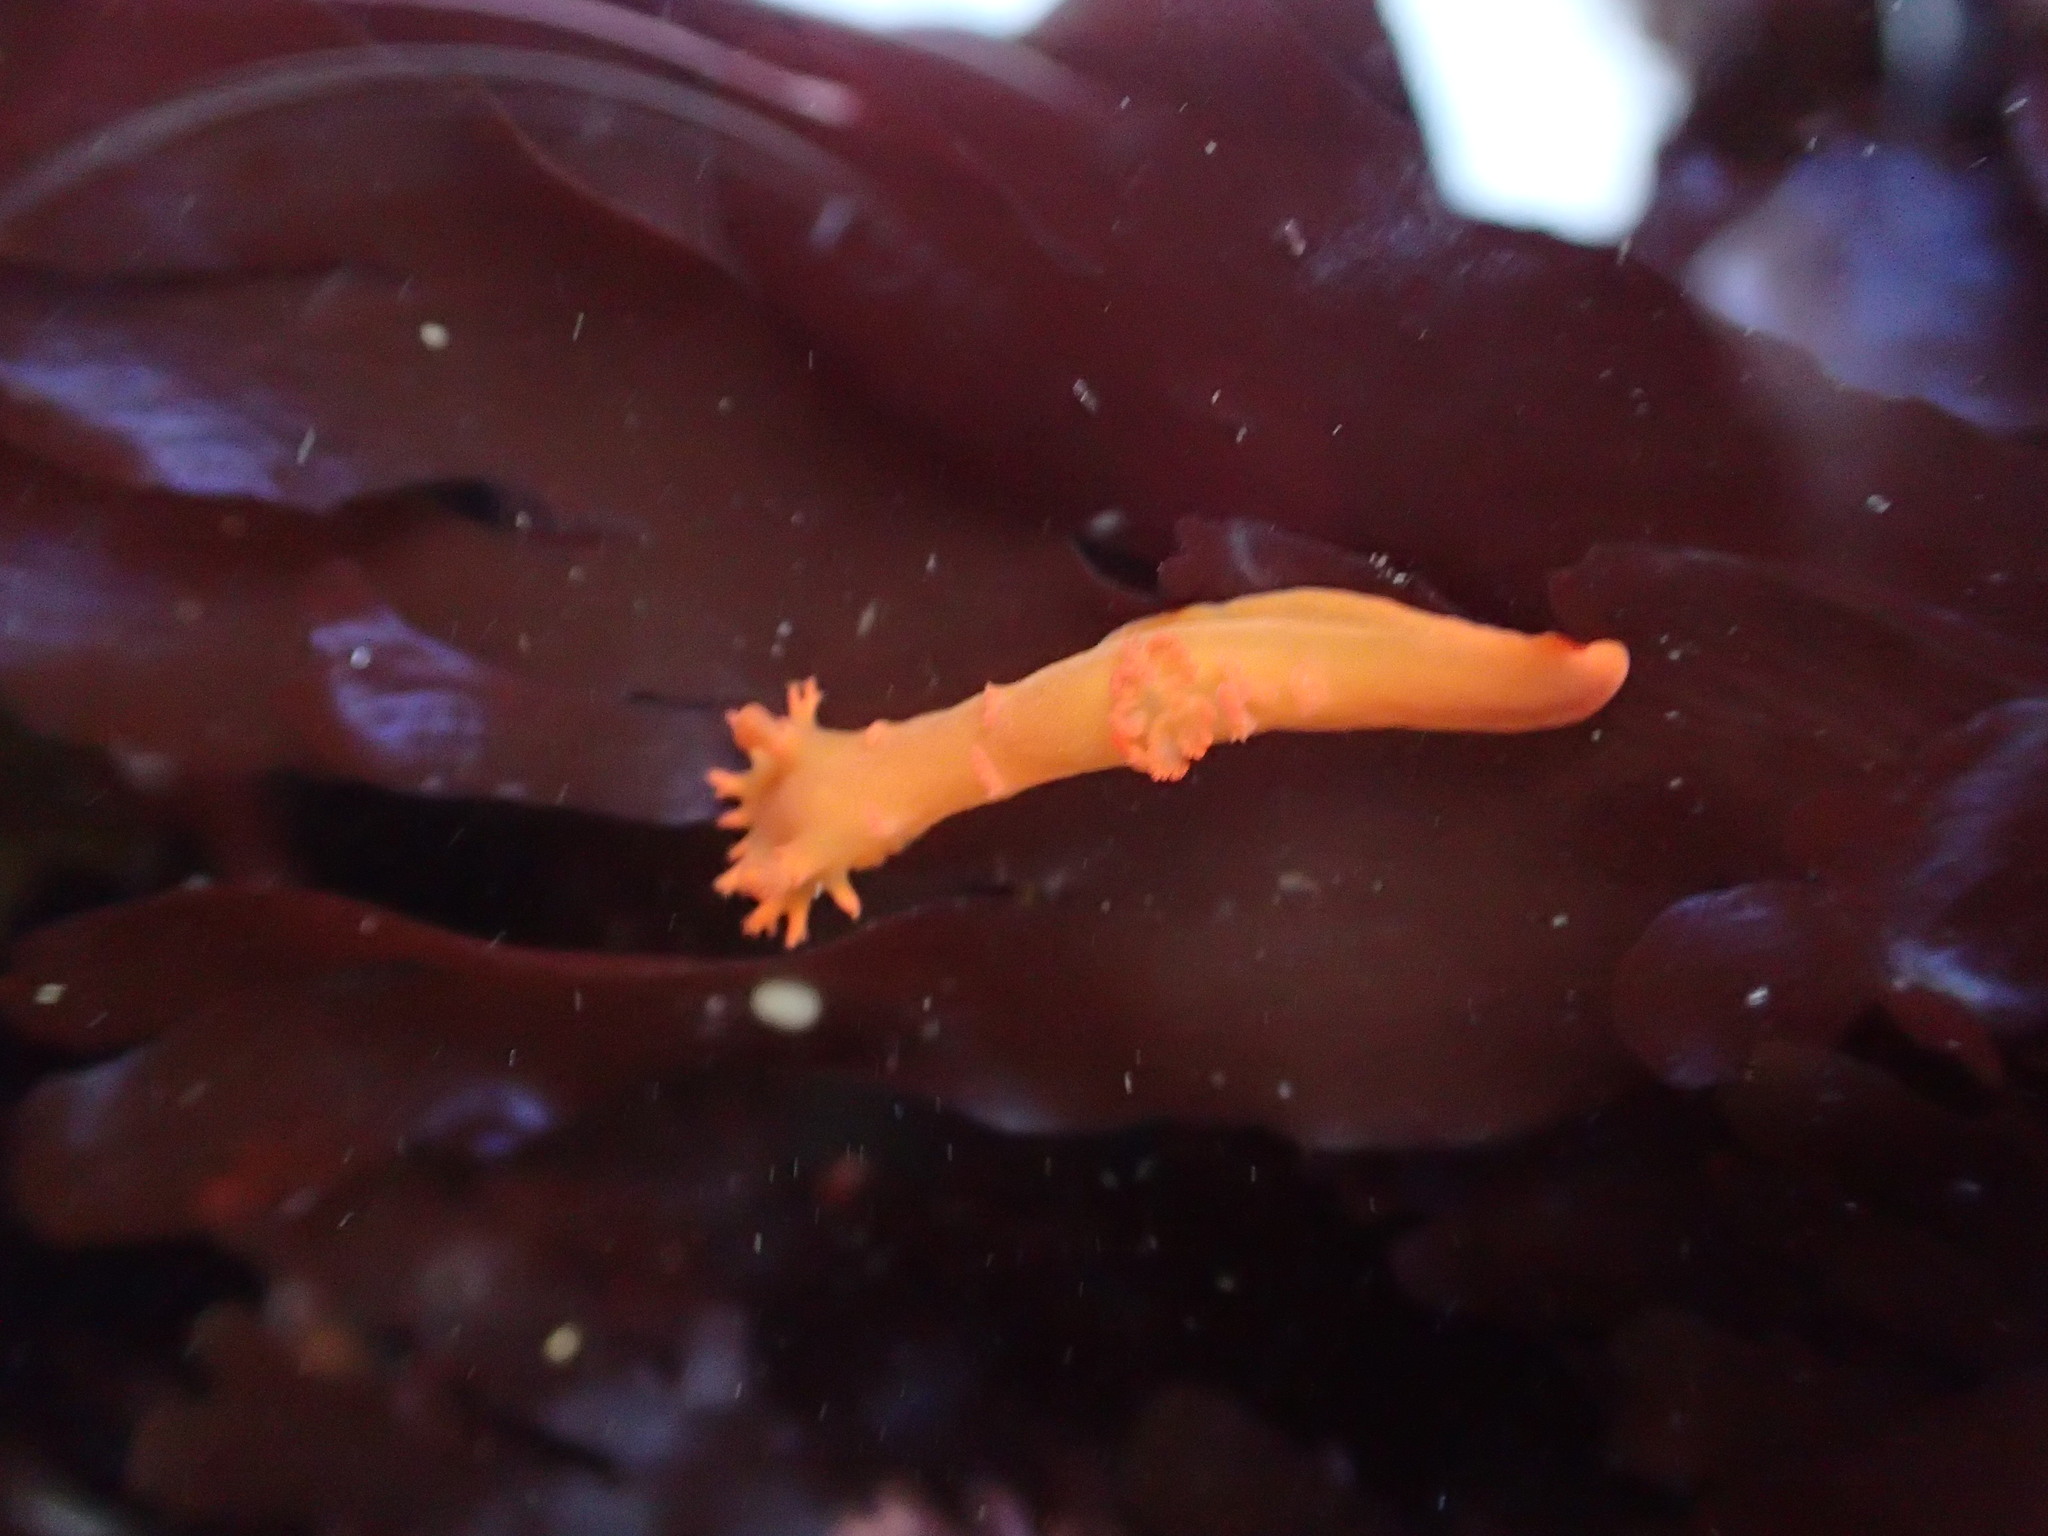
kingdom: Animalia
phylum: Mollusca
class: Gastropoda
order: Nudibranchia
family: Polyceridae
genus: Triopha
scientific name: Triopha maculata
